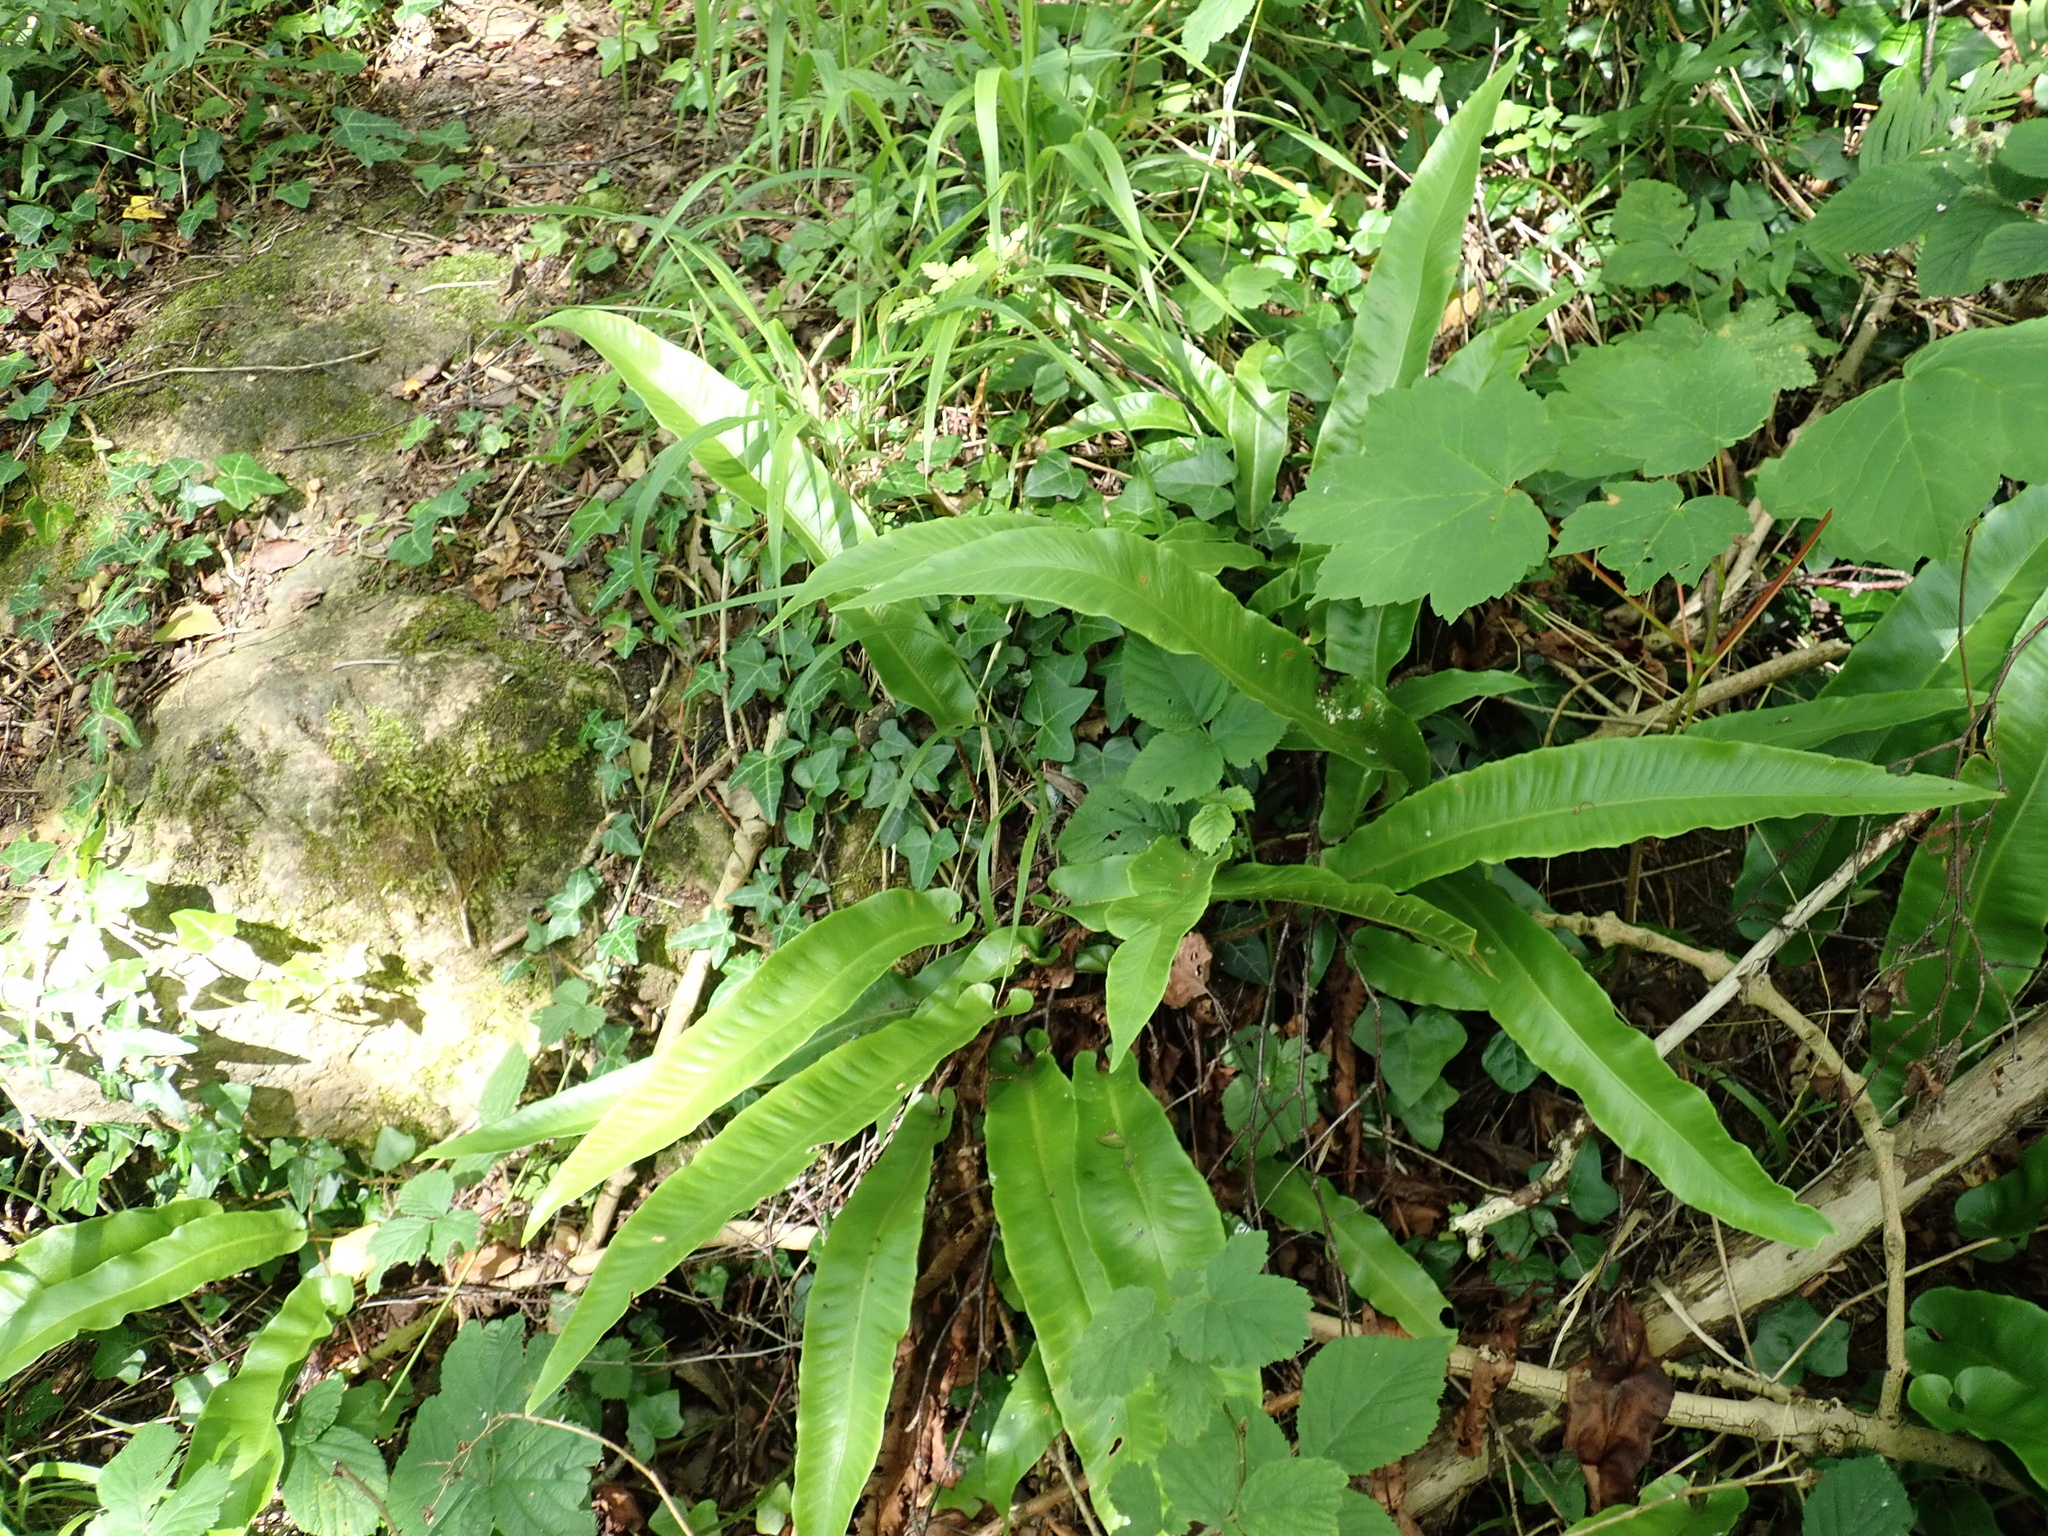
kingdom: Plantae
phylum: Tracheophyta
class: Polypodiopsida
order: Polypodiales
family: Aspleniaceae
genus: Asplenium
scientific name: Asplenium scolopendrium
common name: Hart's-tongue fern
